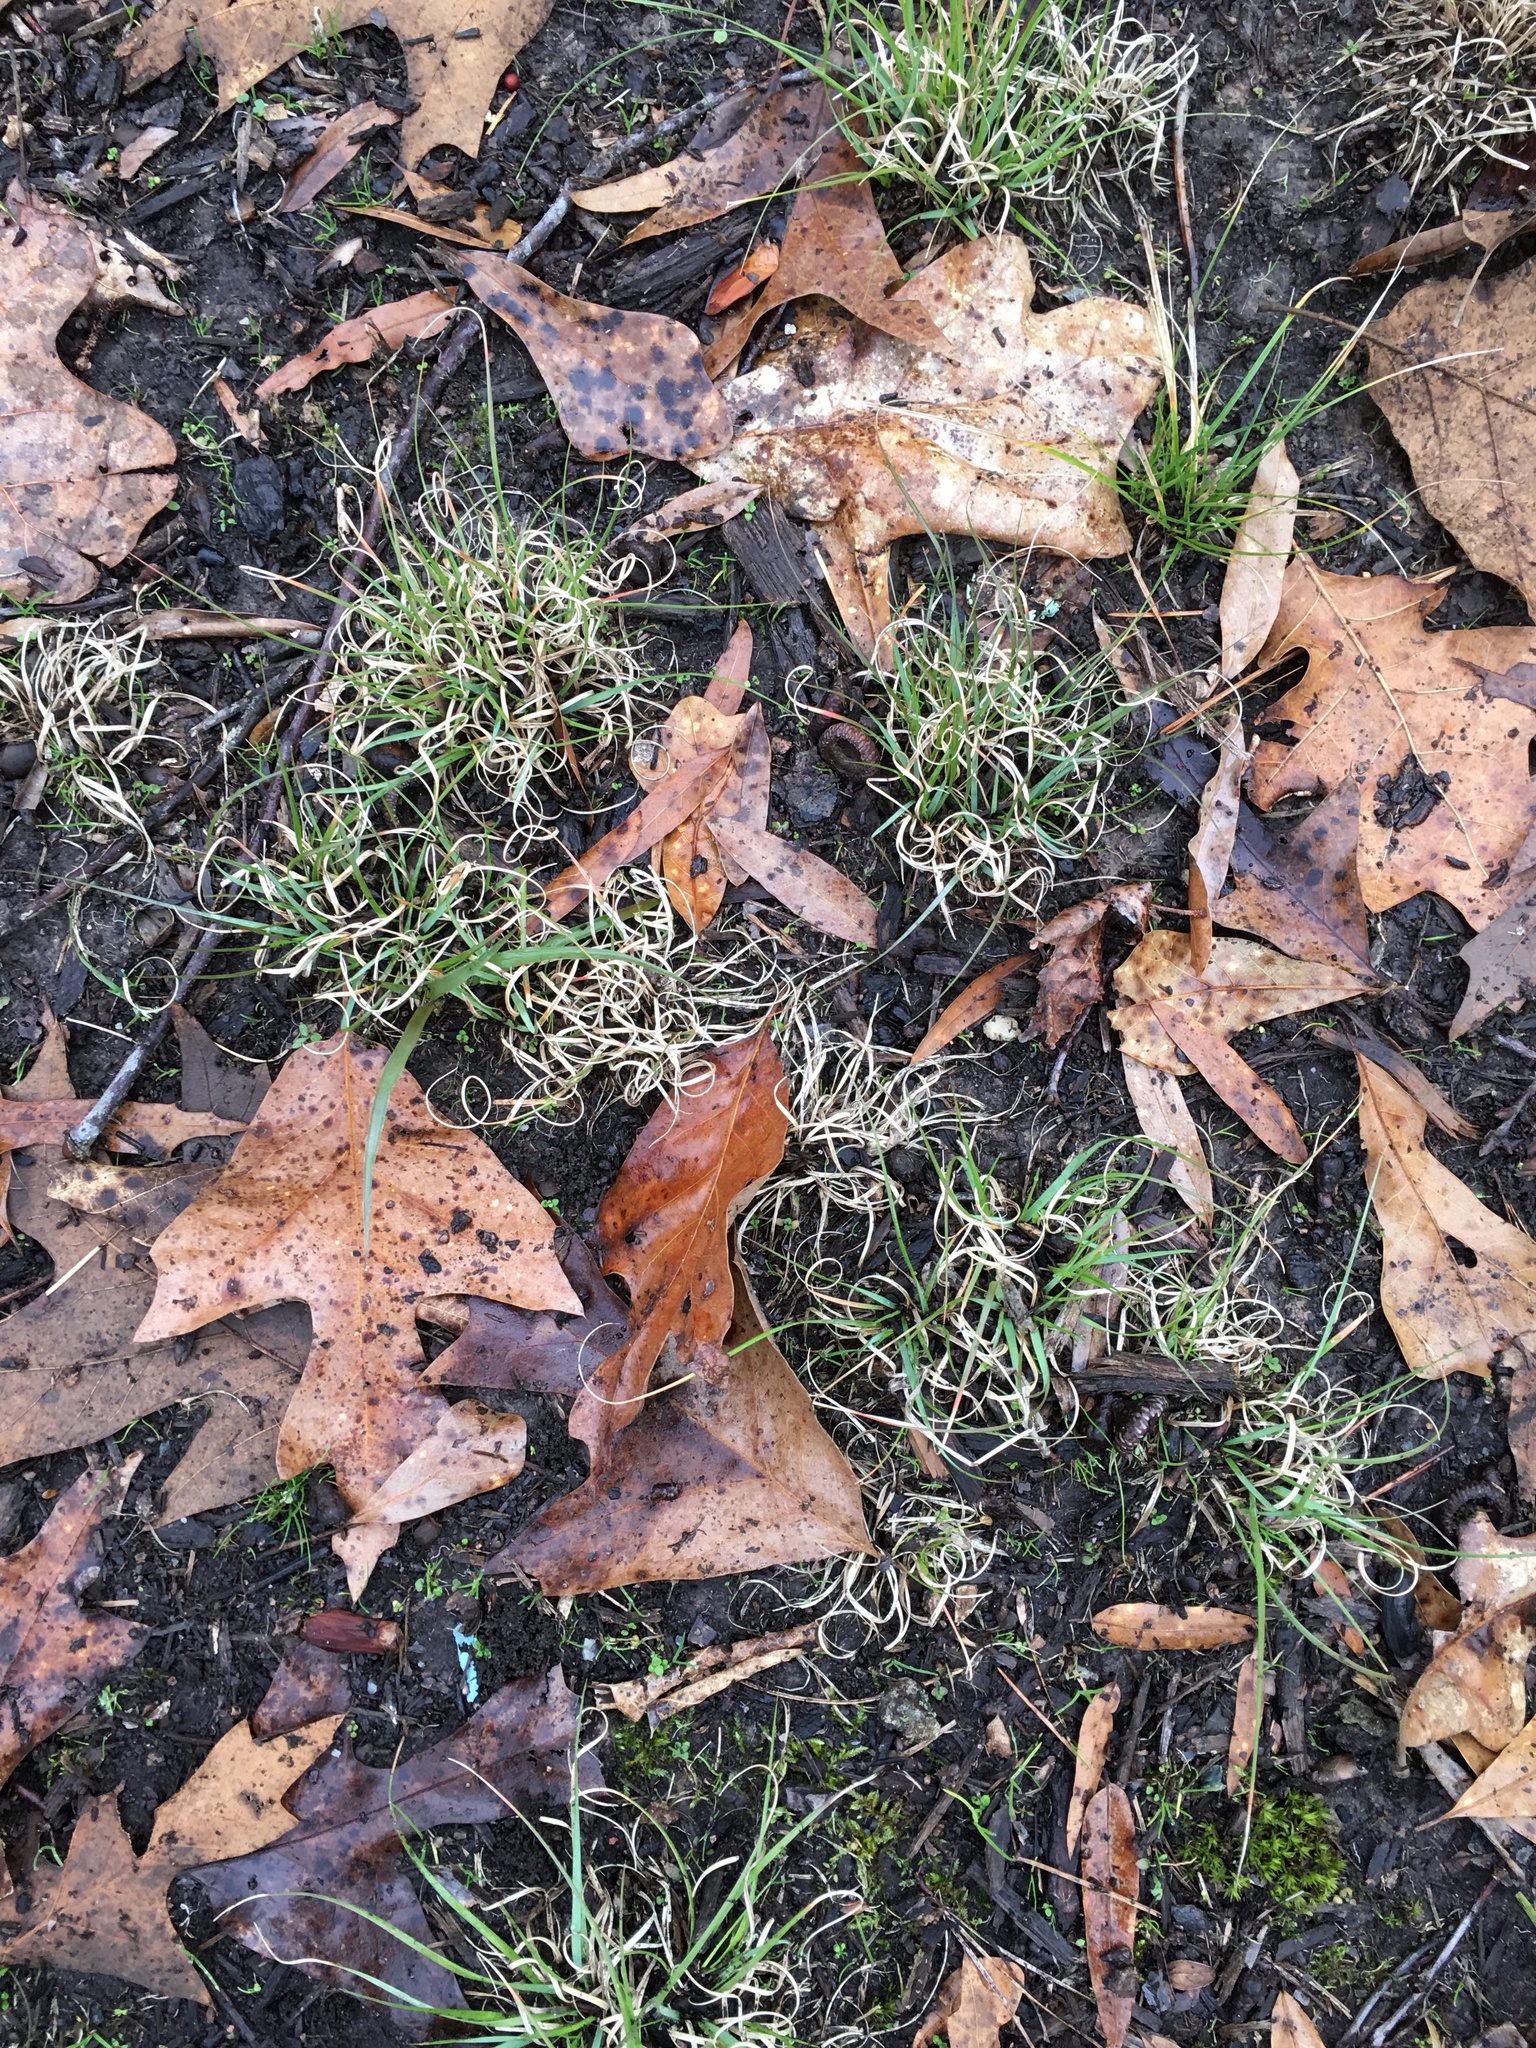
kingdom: Plantae
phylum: Tracheophyta
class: Liliopsida
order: Poales
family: Poaceae
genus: Danthonia
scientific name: Danthonia spicata
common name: Common wild oatgrass
